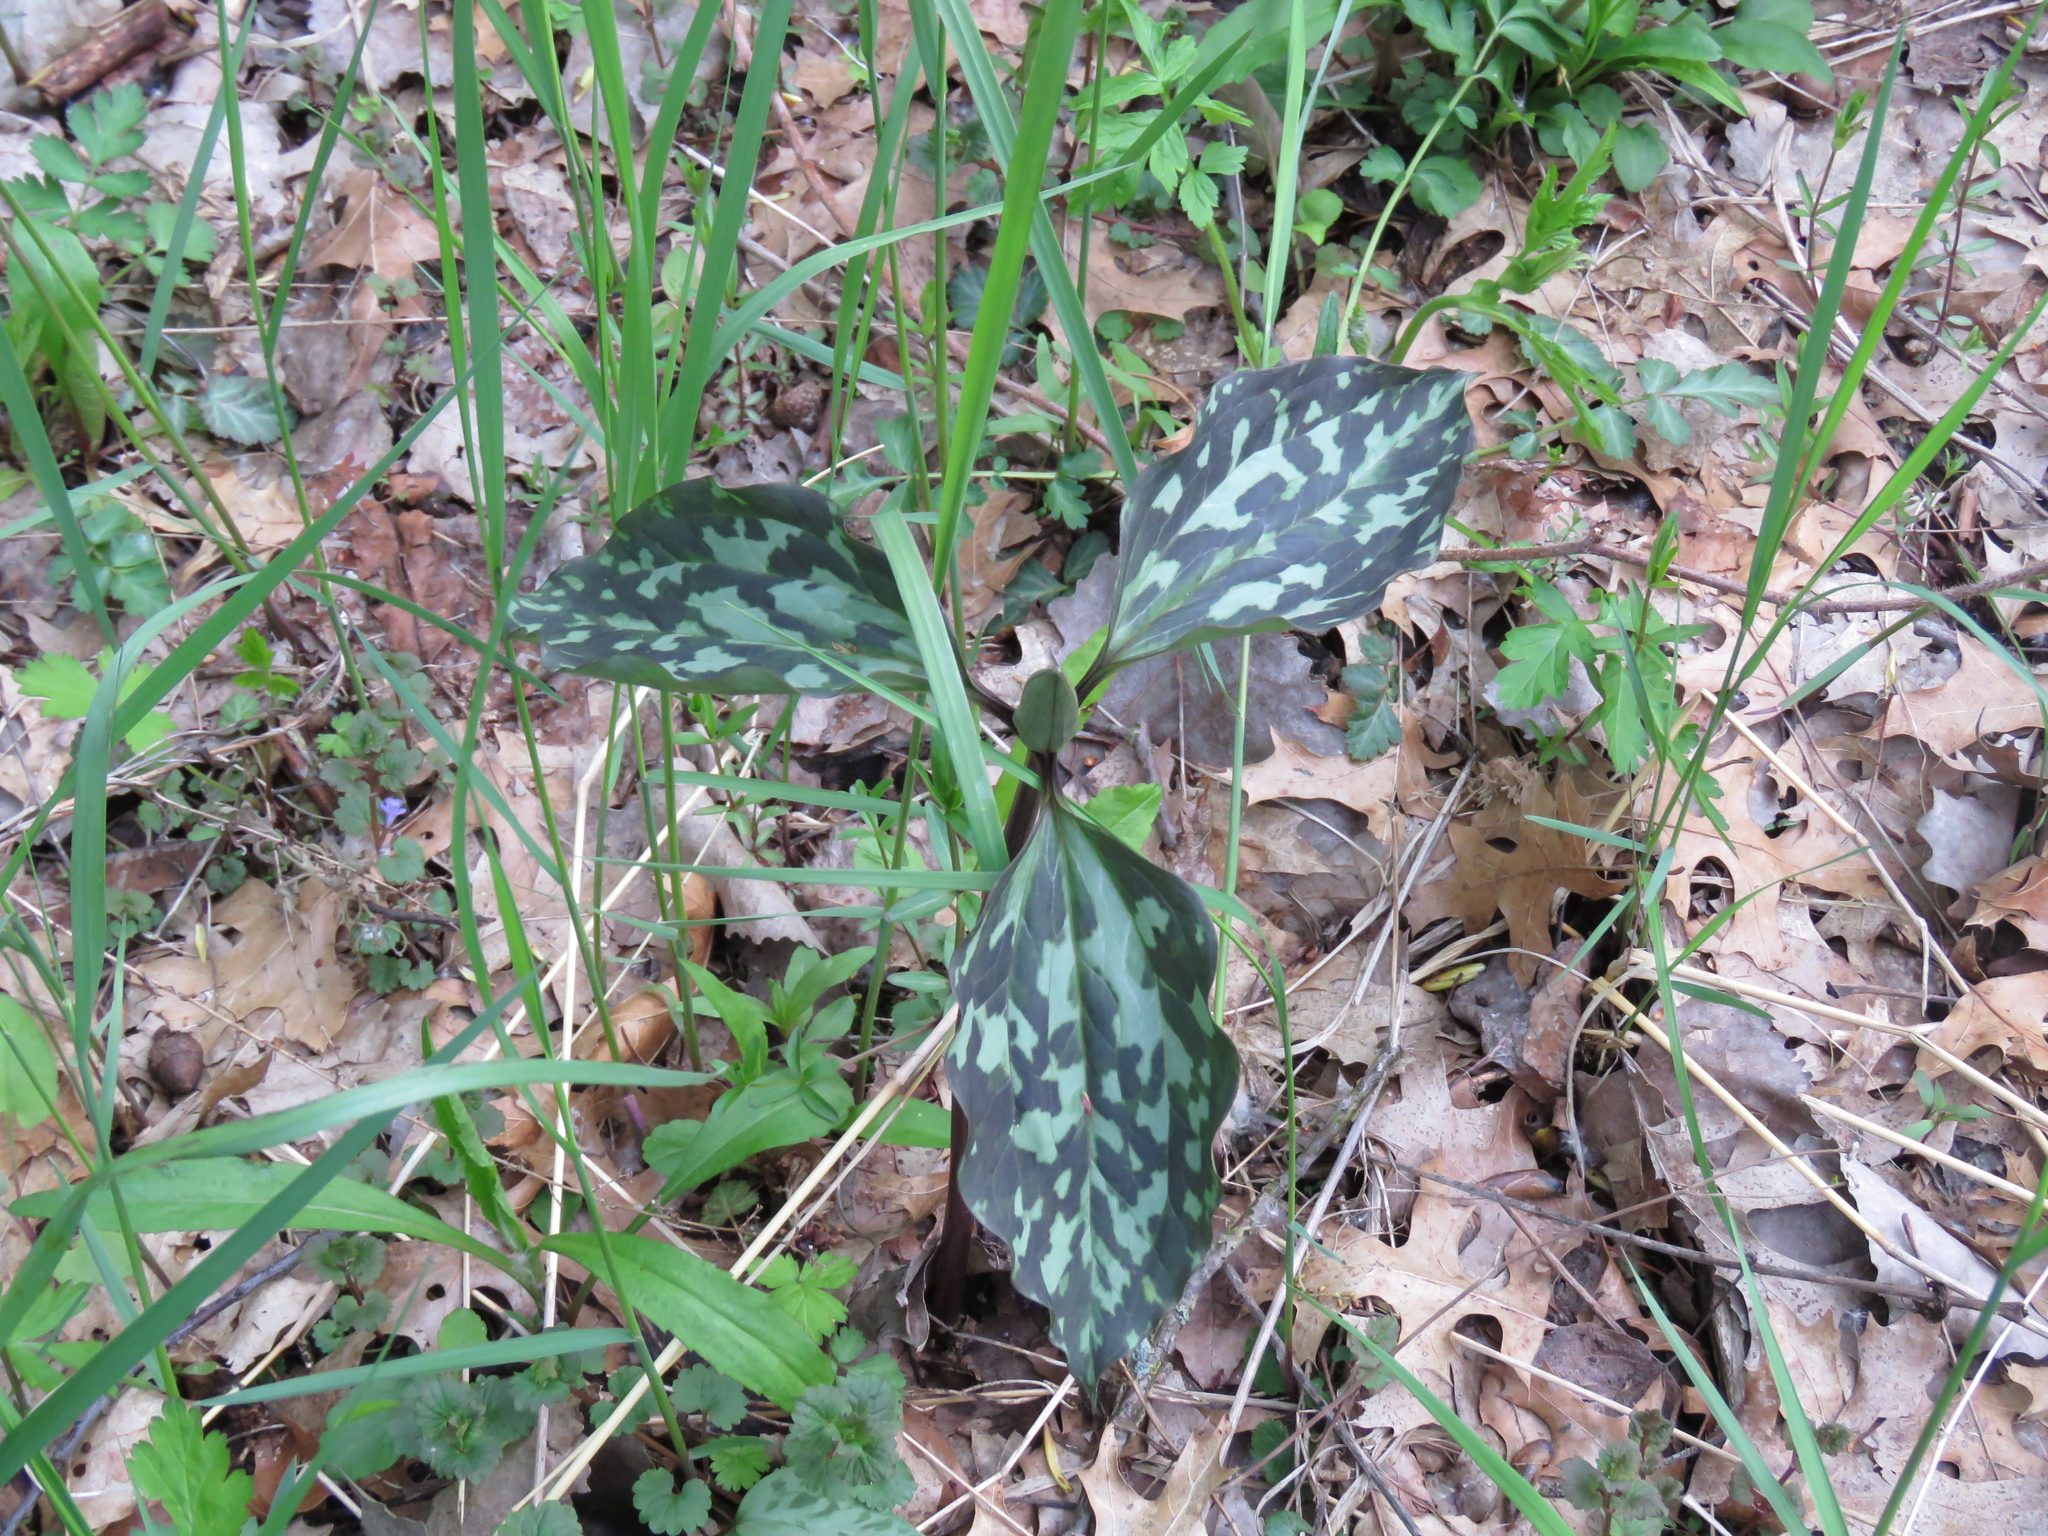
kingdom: Plantae
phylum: Tracheophyta
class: Liliopsida
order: Liliales
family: Melanthiaceae
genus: Trillium
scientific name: Trillium recurvatum
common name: Bloody butcher
